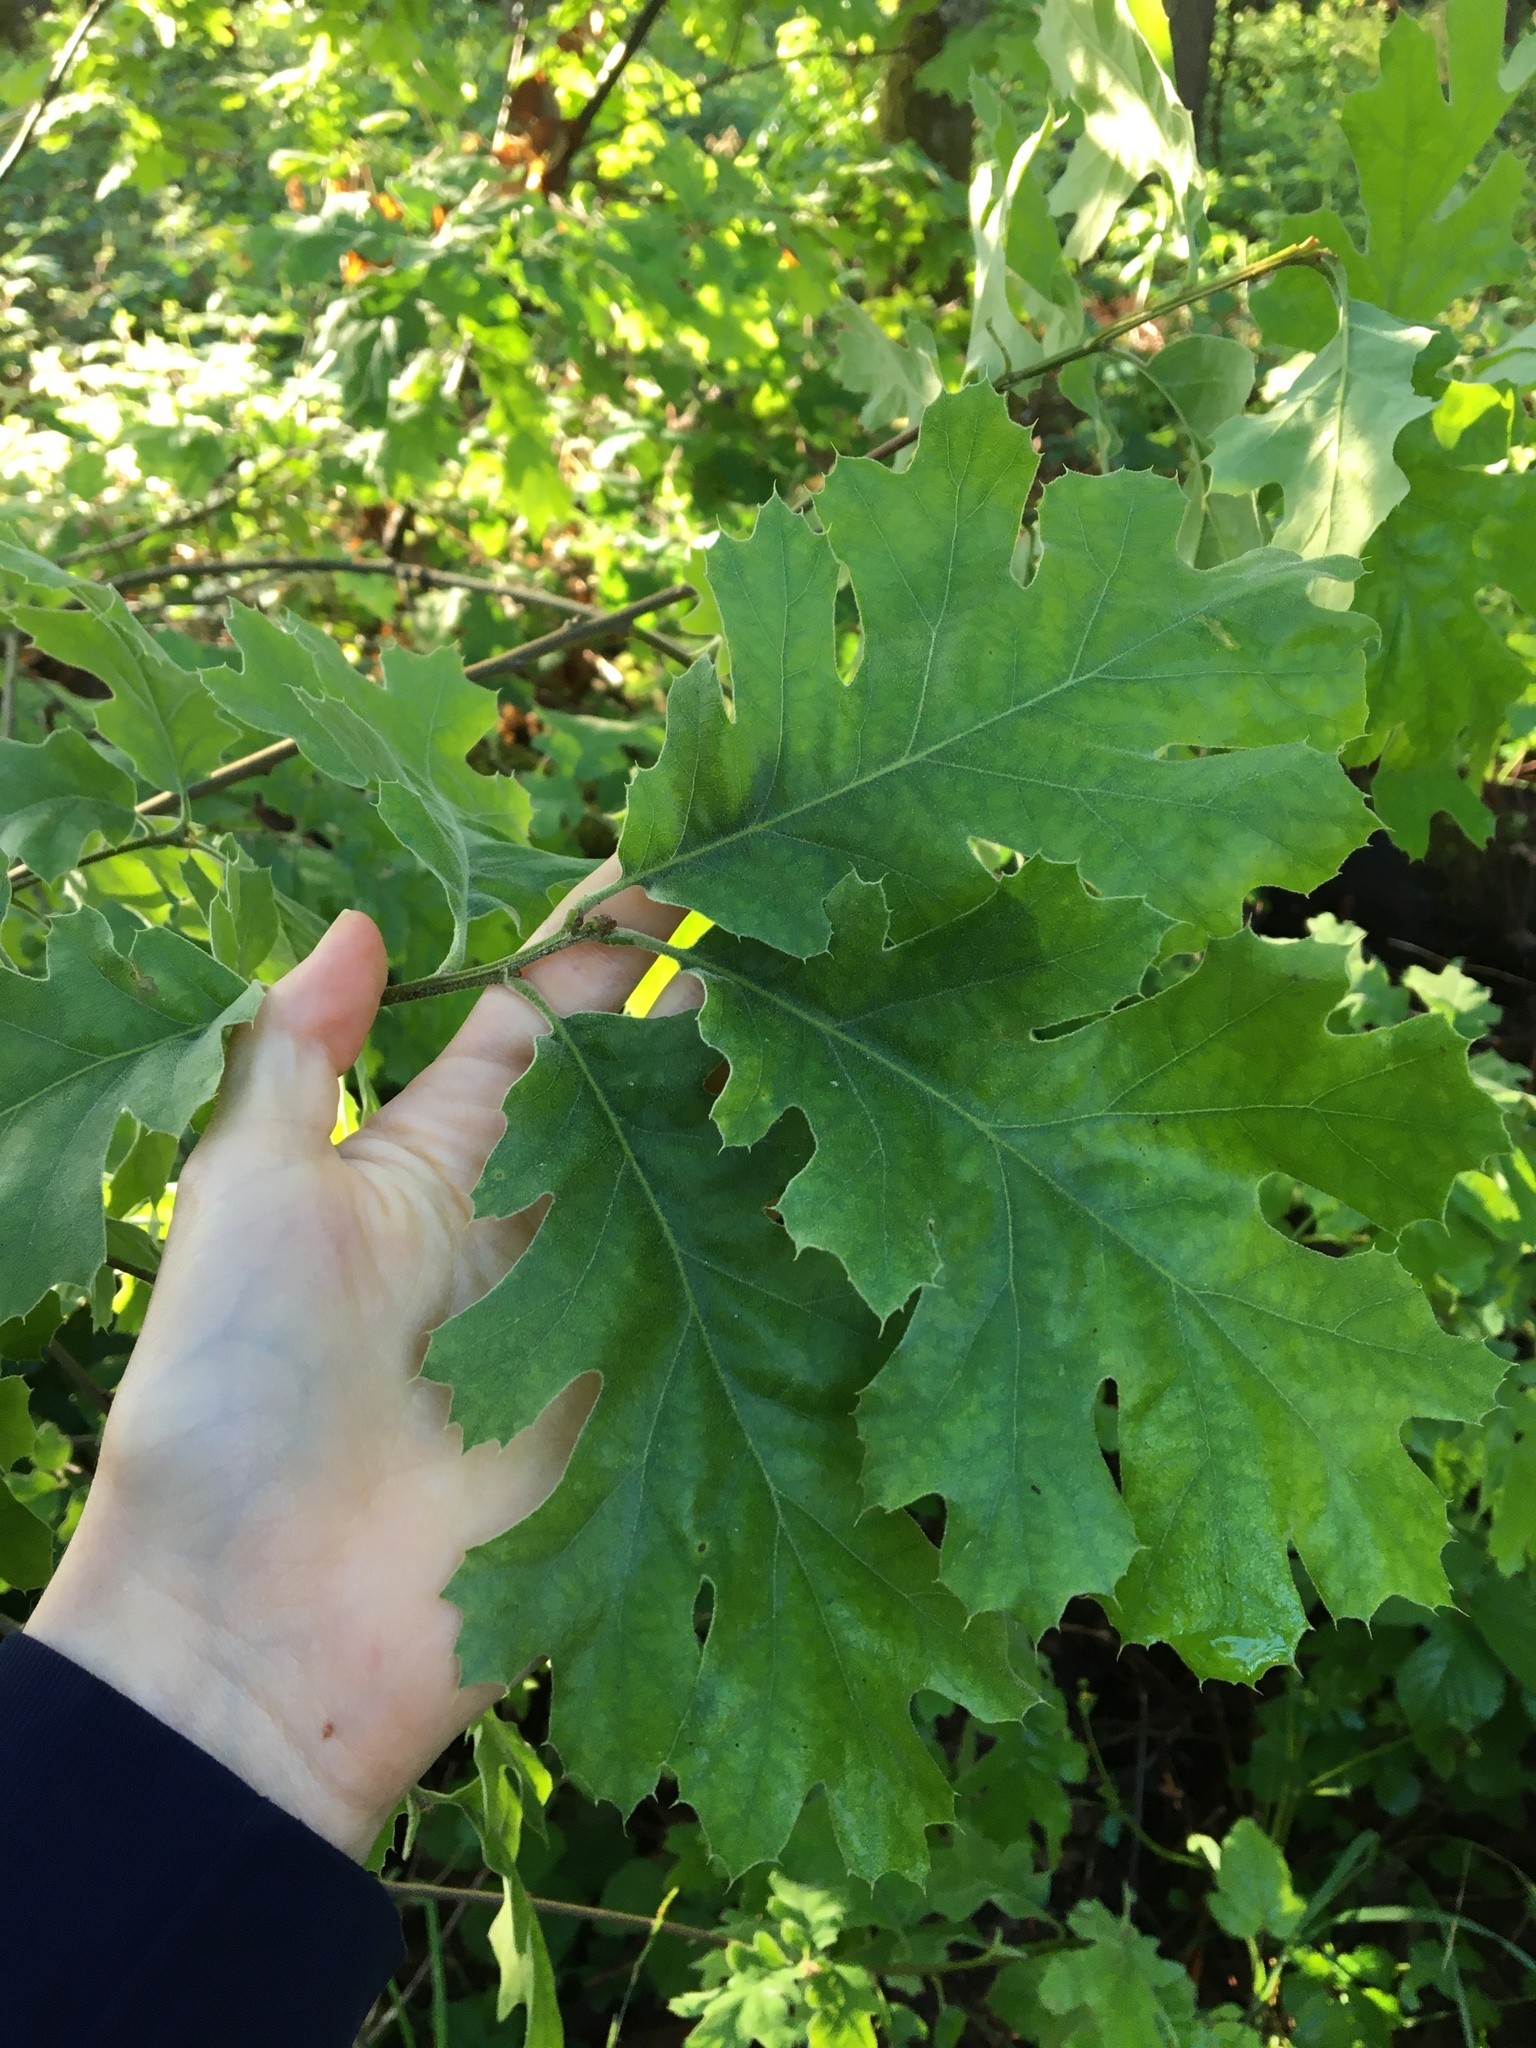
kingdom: Plantae
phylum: Tracheophyta
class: Magnoliopsida
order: Fagales
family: Fagaceae
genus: Quercus
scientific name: Quercus kelloggii
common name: California black oak
